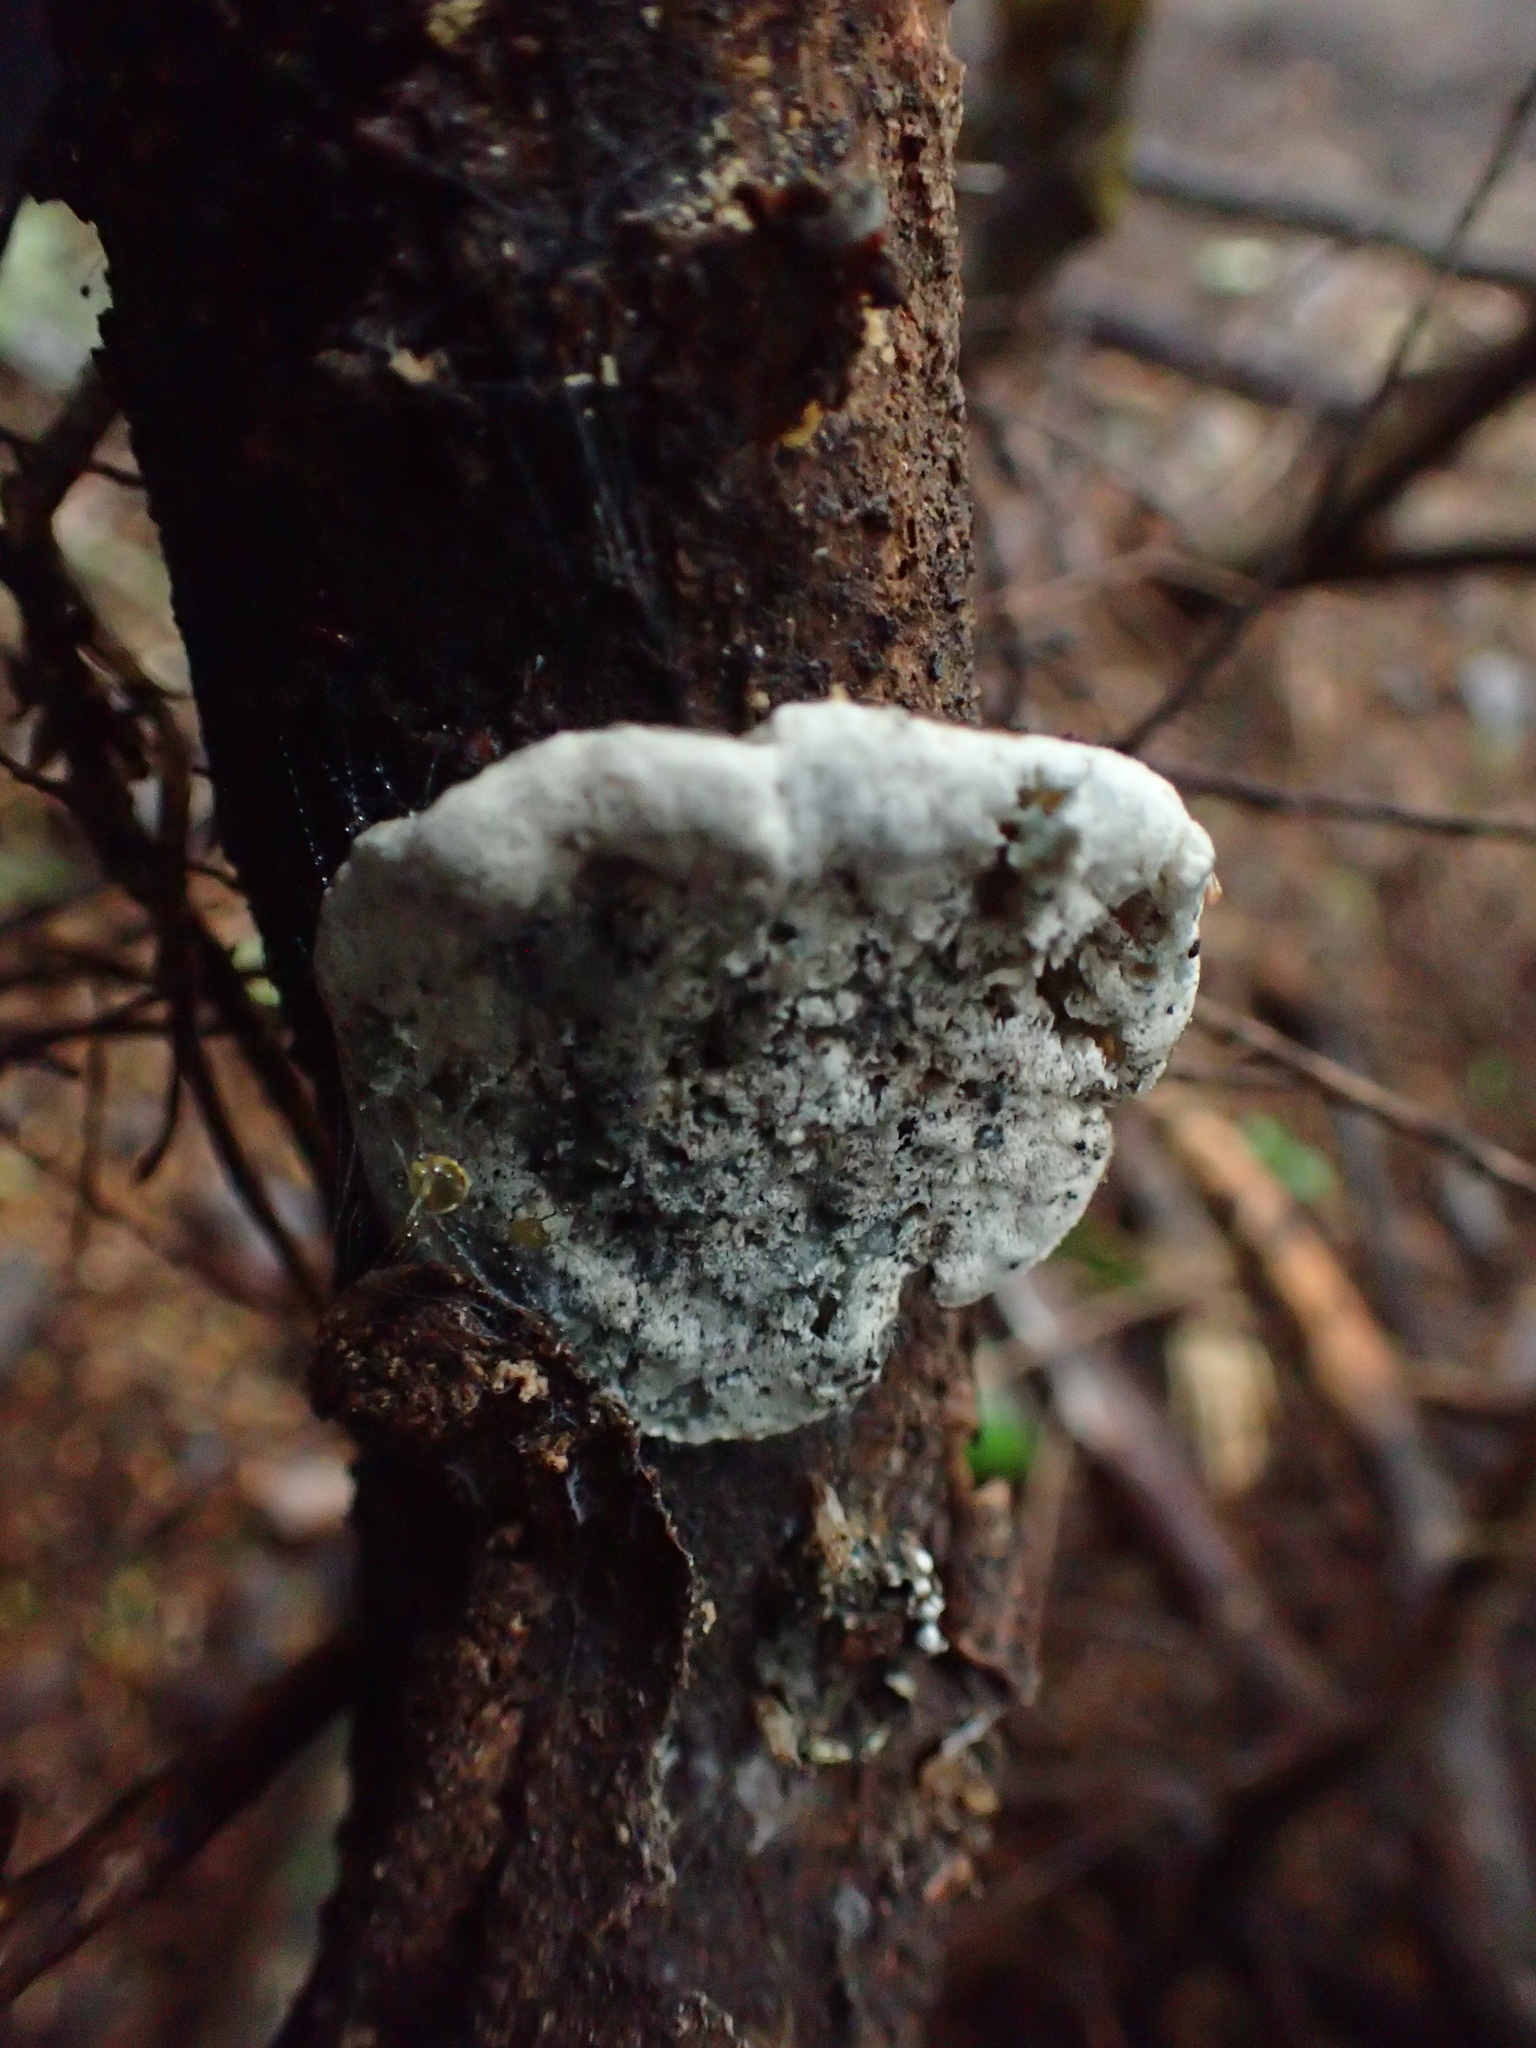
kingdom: Fungi
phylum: Basidiomycota
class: Agaricomycetes
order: Polyporales
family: Polyporaceae
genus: Cyanosporus
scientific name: Cyanosporus caesius
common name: Blue cheese polypore
